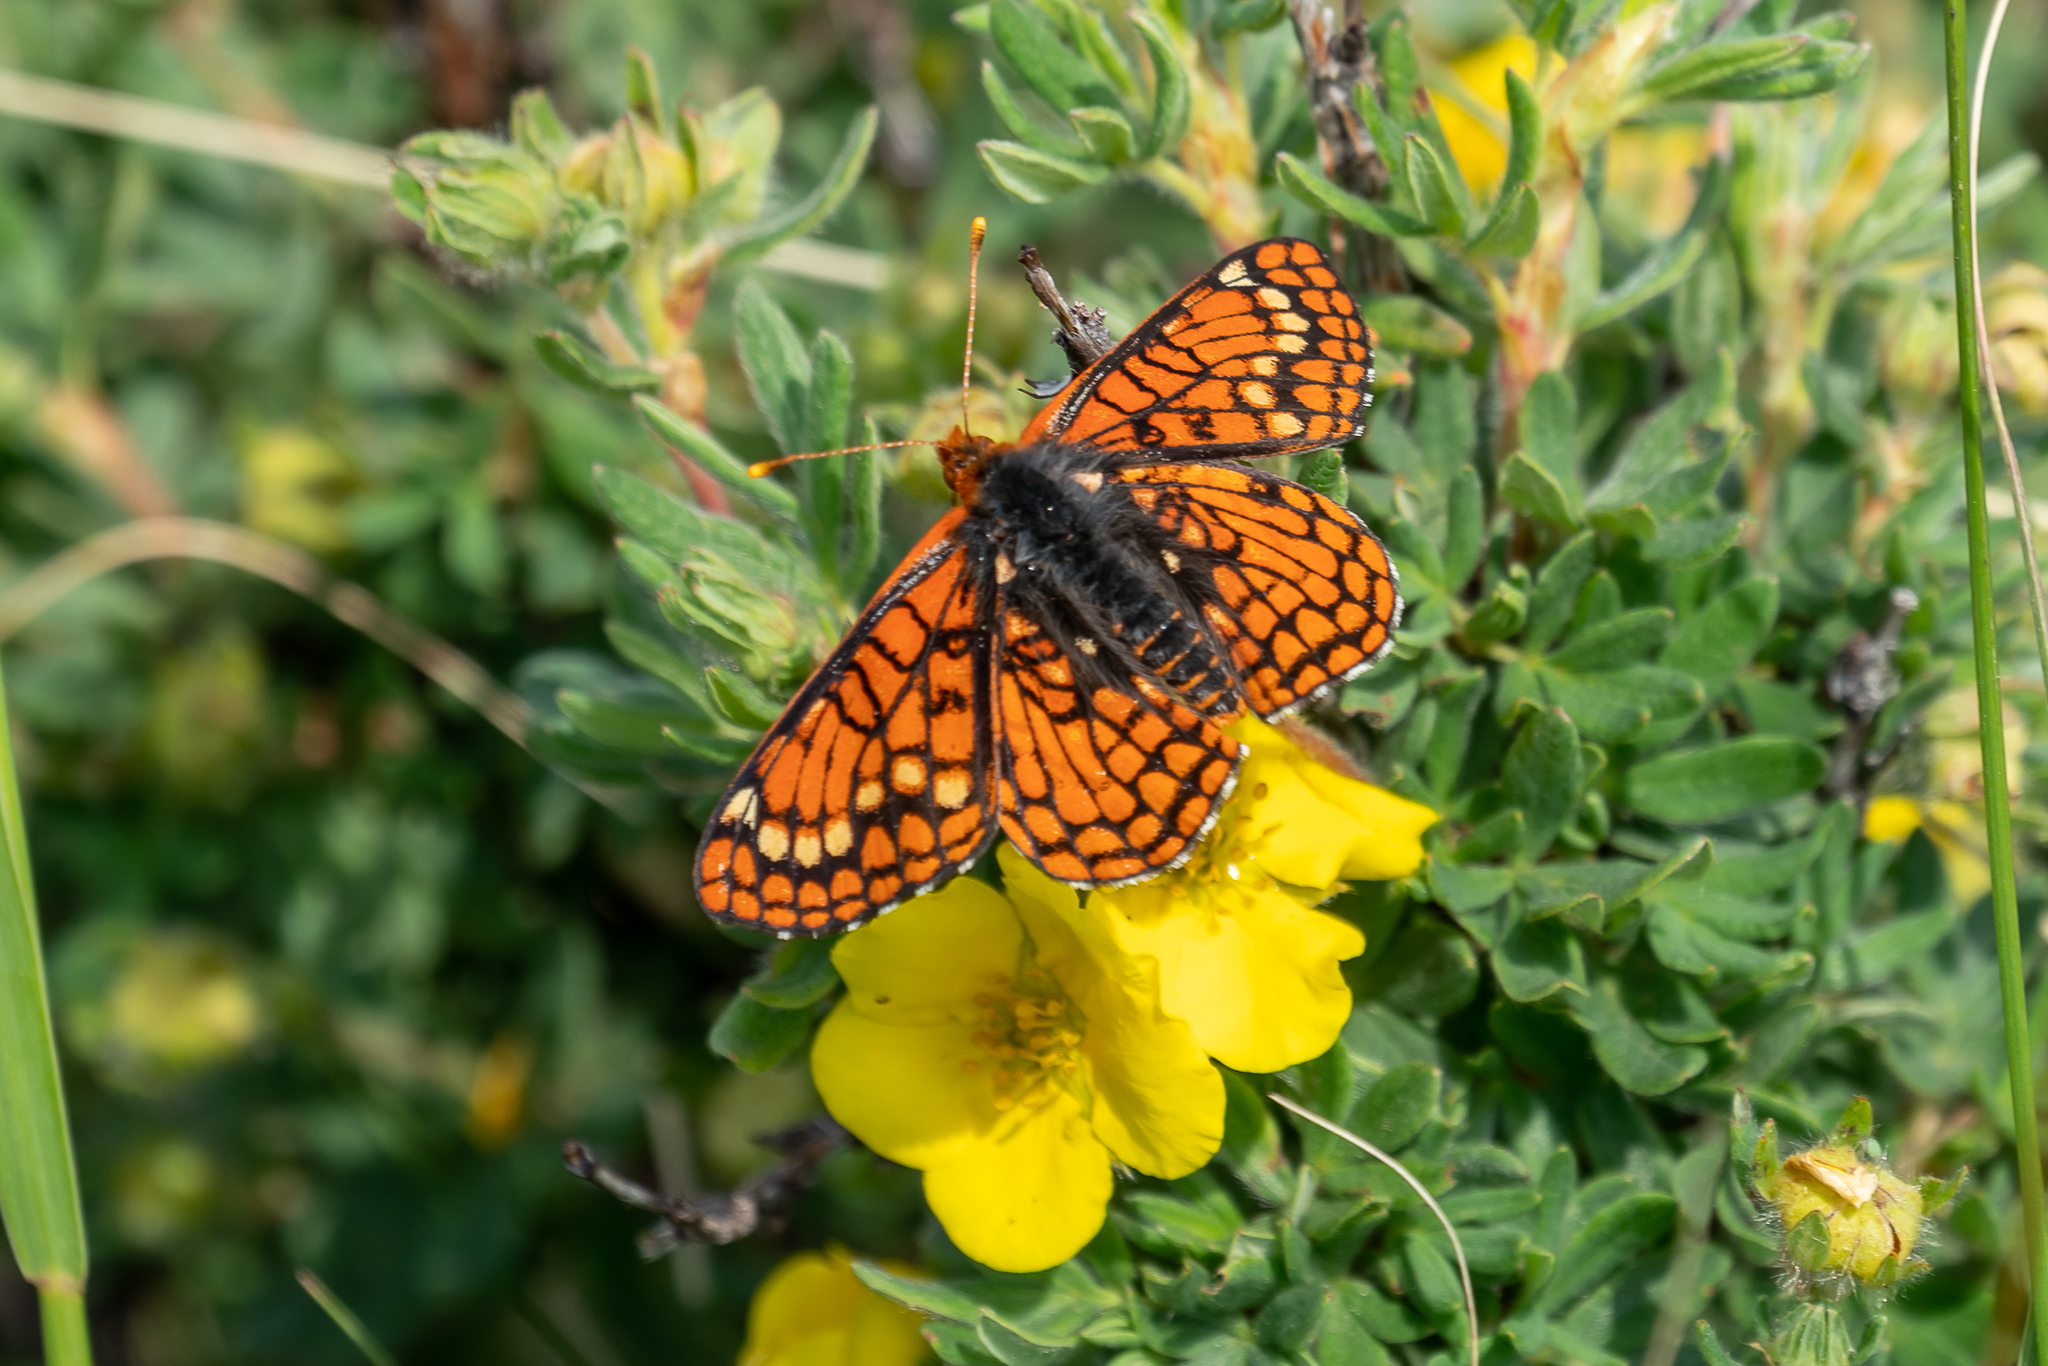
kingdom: Animalia
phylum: Arthropoda
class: Insecta
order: Lepidoptera
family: Nymphalidae
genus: Occidryas
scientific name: Occidryas anicia
